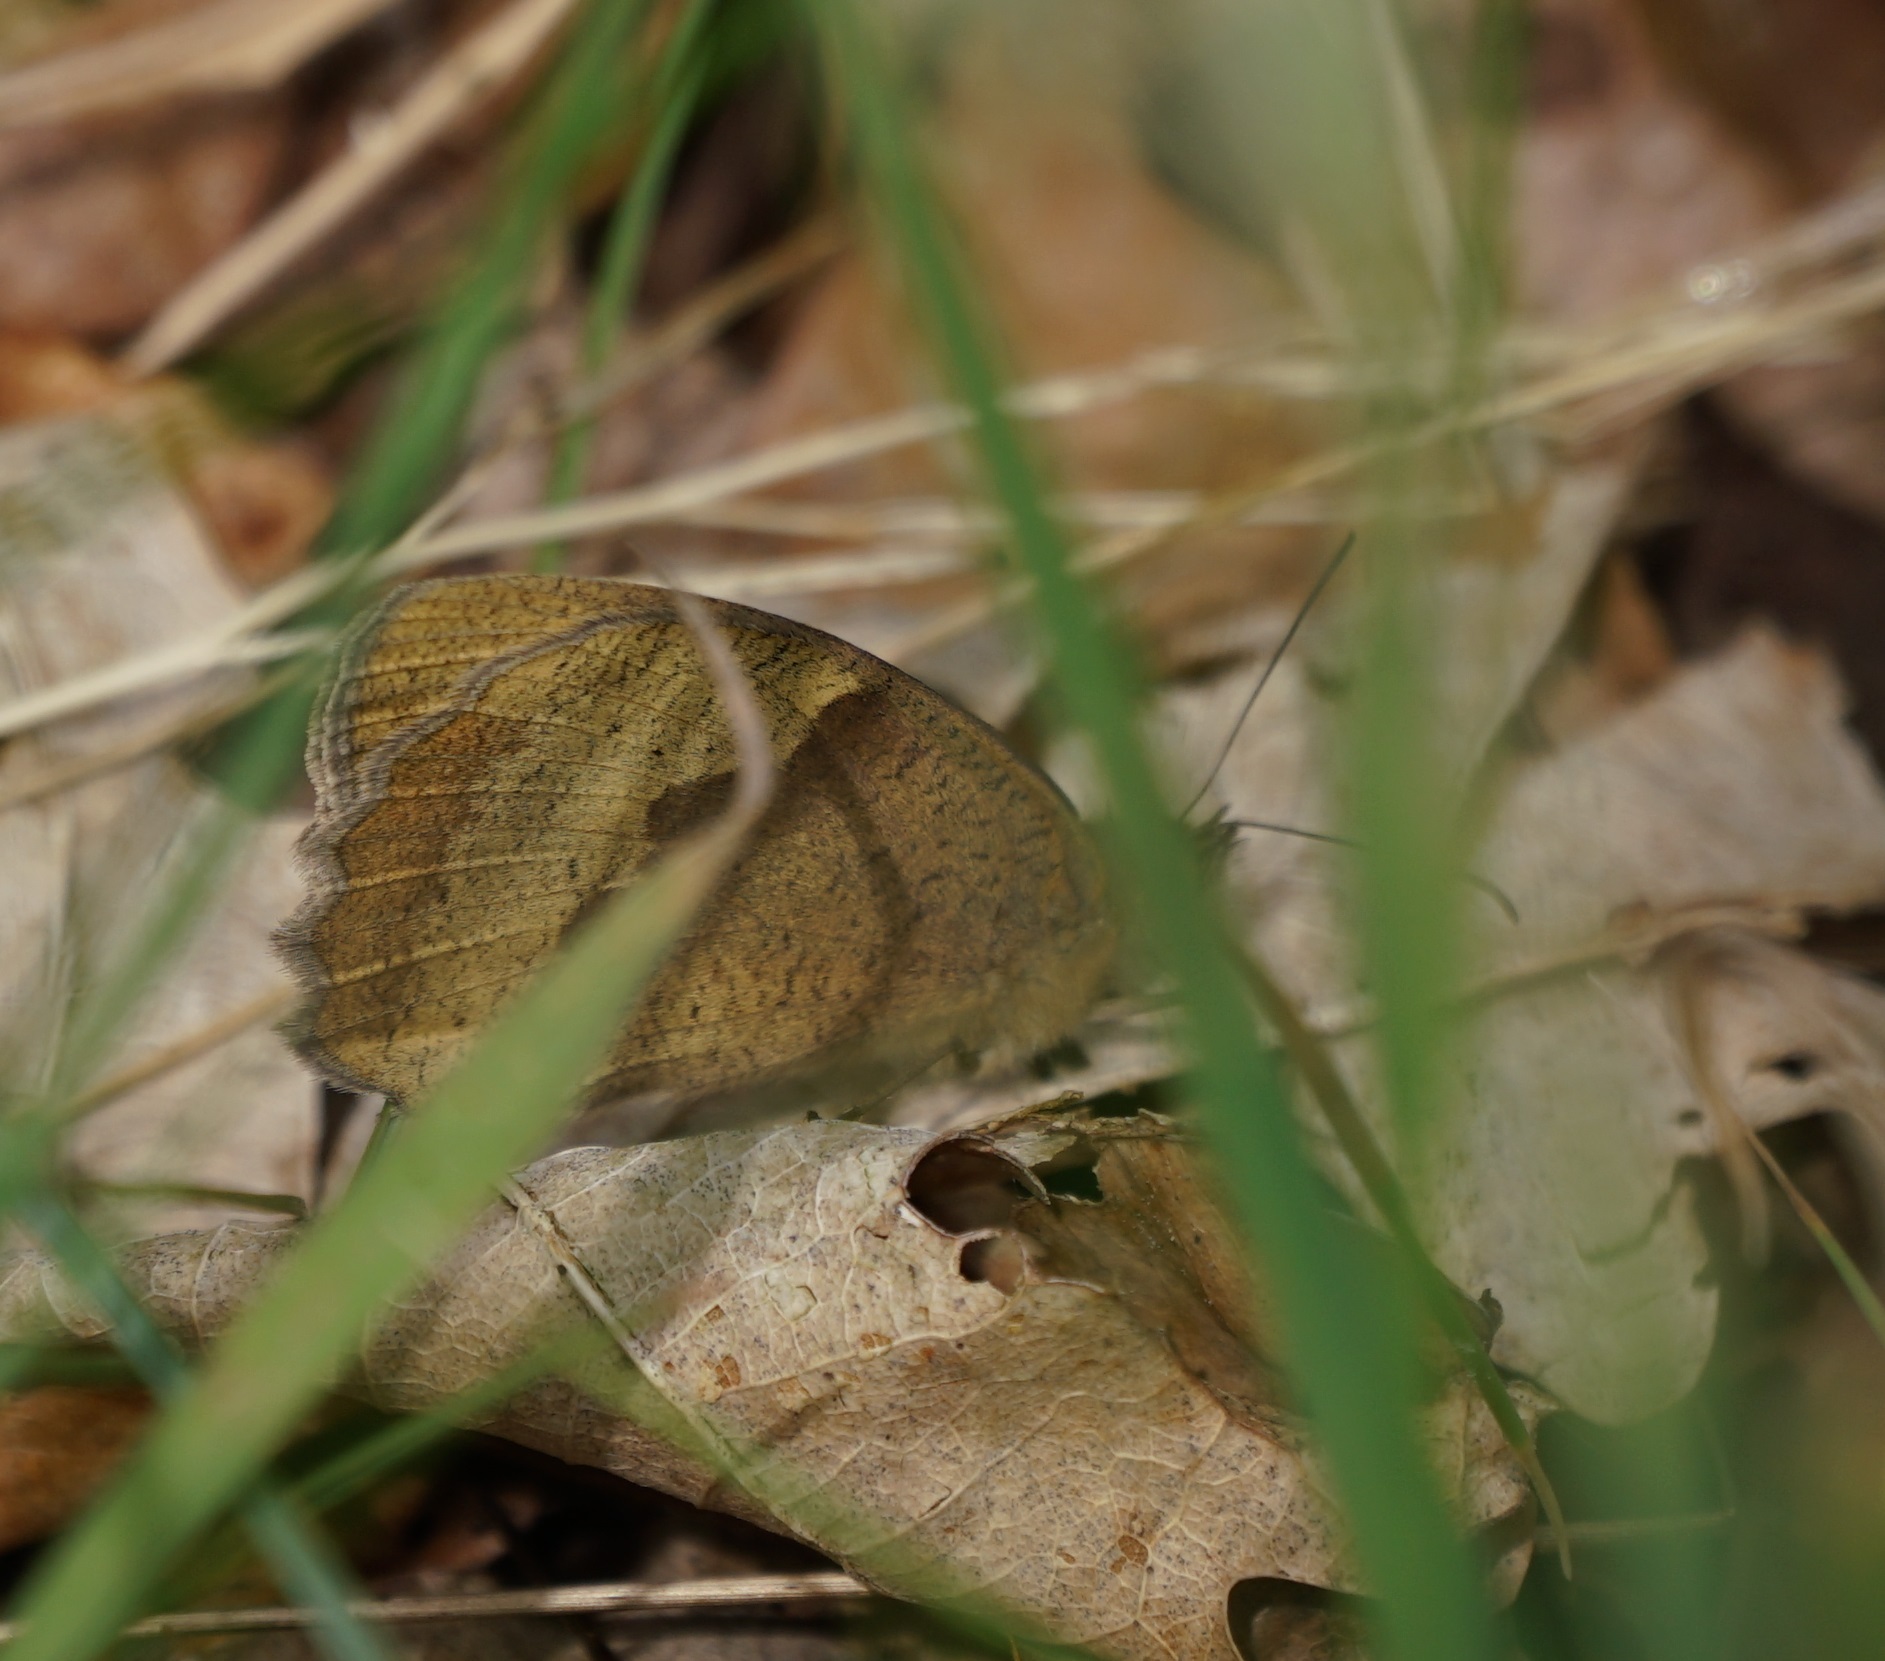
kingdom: Animalia
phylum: Arthropoda
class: Insecta
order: Lepidoptera
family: Nymphalidae
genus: Maniola
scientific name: Maniola jurtina
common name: Meadow brown
